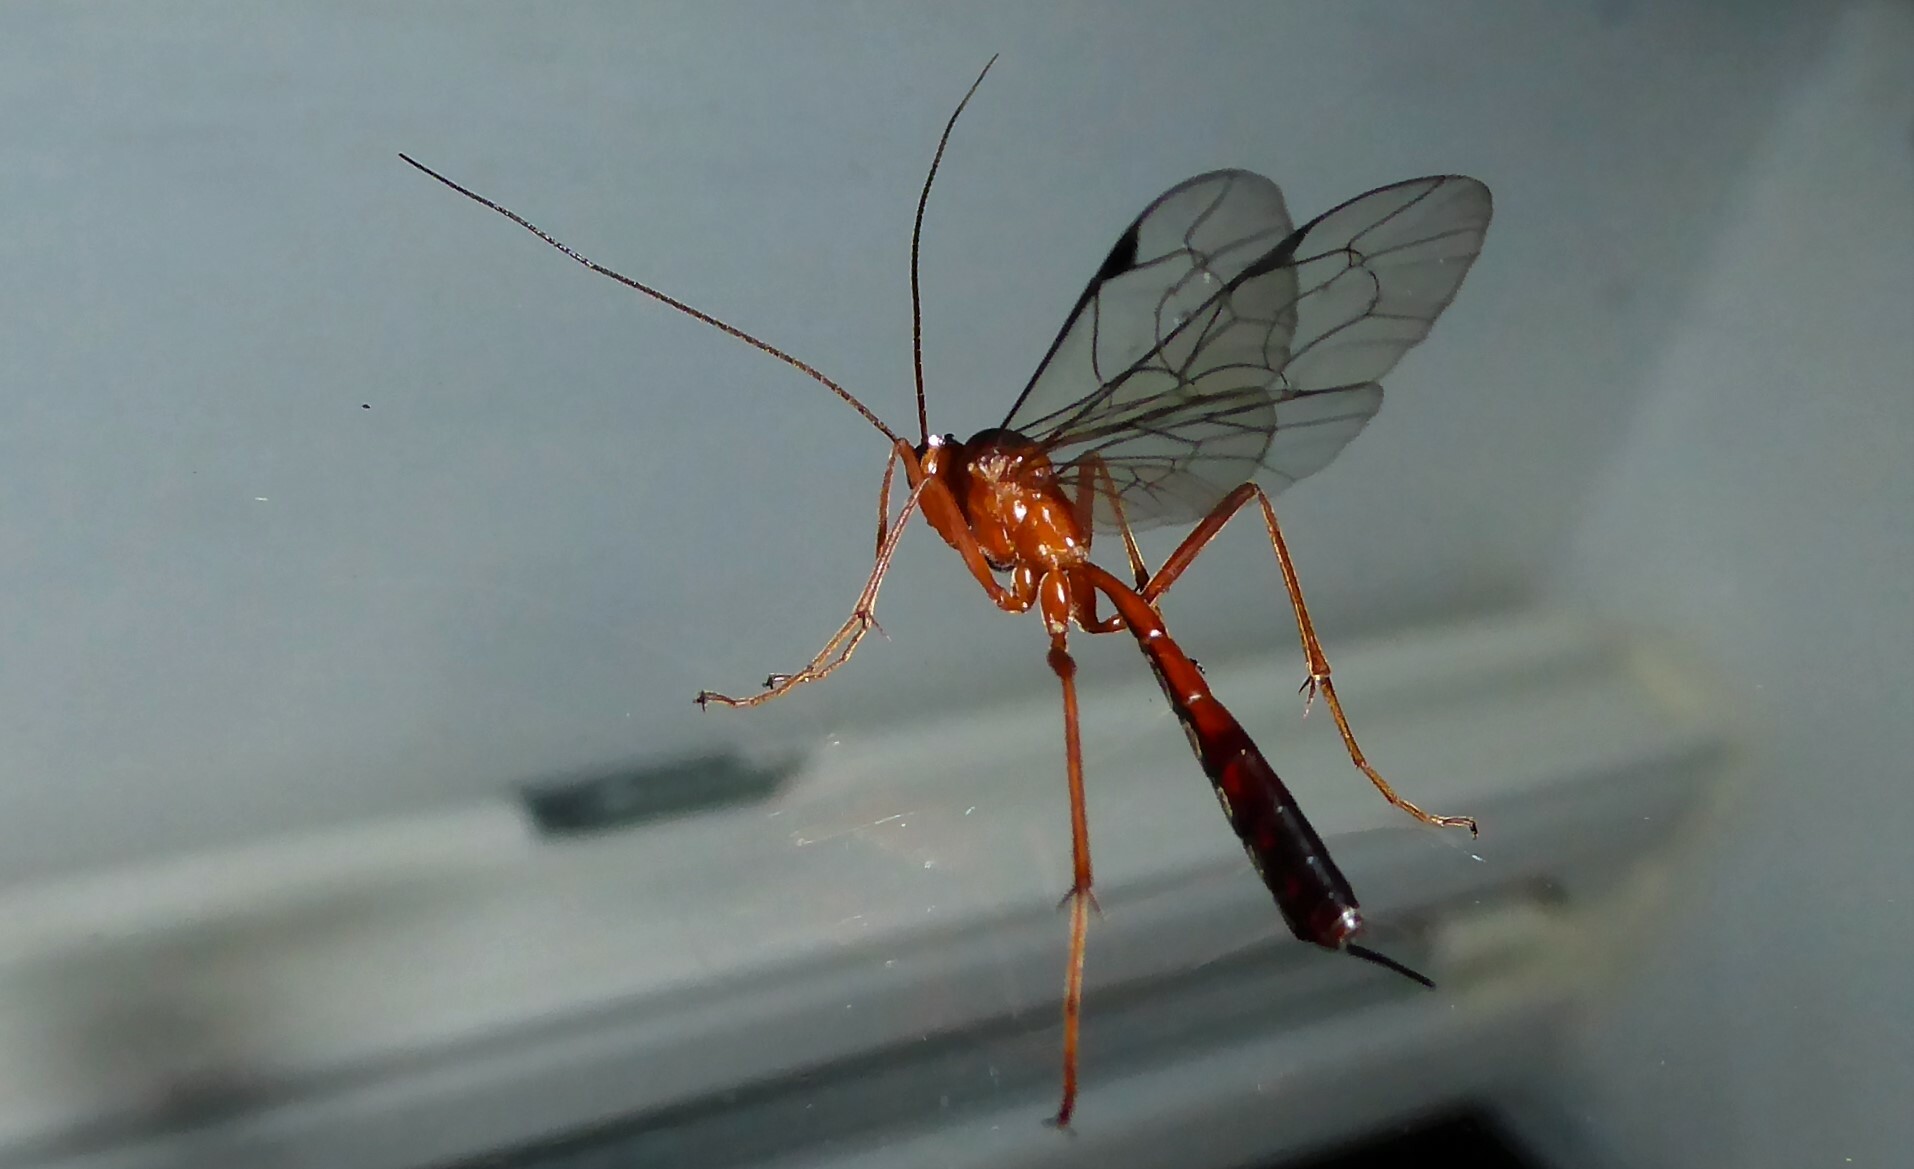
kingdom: Animalia
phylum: Arthropoda
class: Insecta
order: Hymenoptera
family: Ichneumonidae
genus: Netelia
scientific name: Netelia ephippiata
